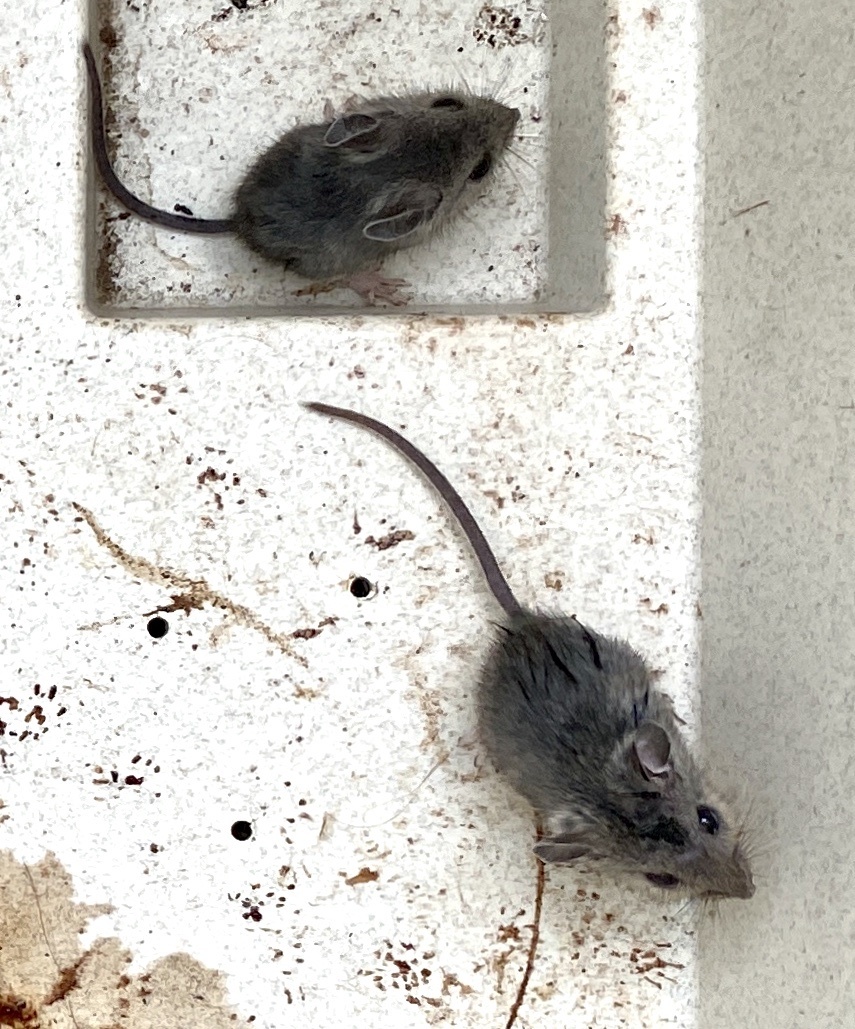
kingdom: Animalia
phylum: Chordata
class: Mammalia
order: Rodentia
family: Cricetidae
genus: Peromyscus
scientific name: Peromyscus leucopus
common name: White-footed deermouse
